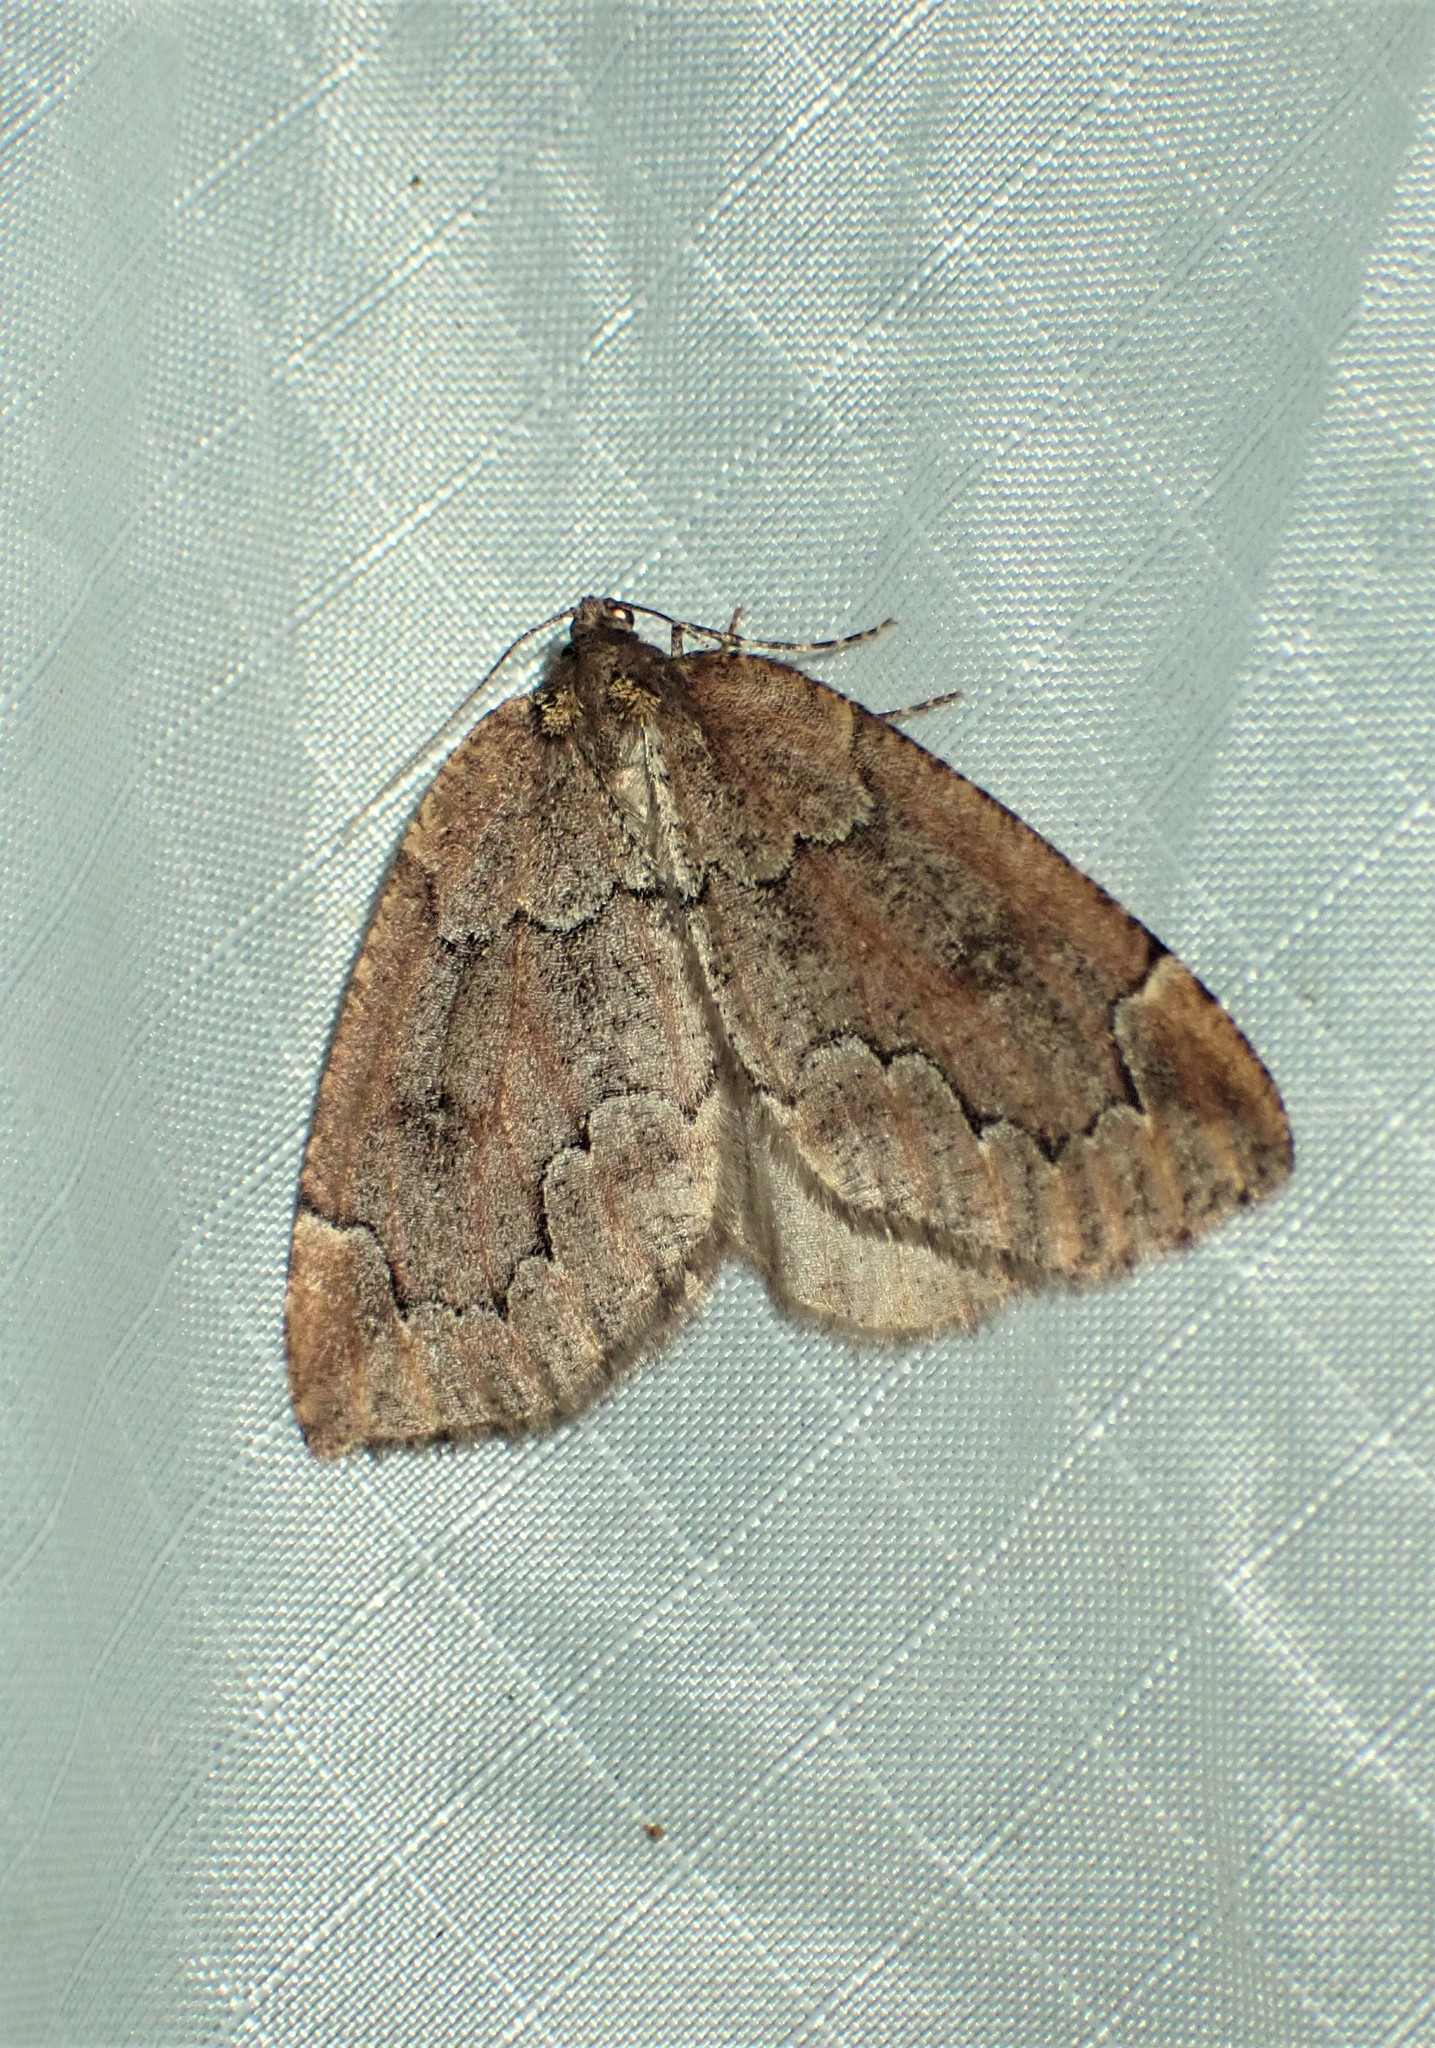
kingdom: Animalia
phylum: Arthropoda
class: Insecta
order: Lepidoptera
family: Geometridae
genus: Spodolepis
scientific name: Spodolepis substriataria
